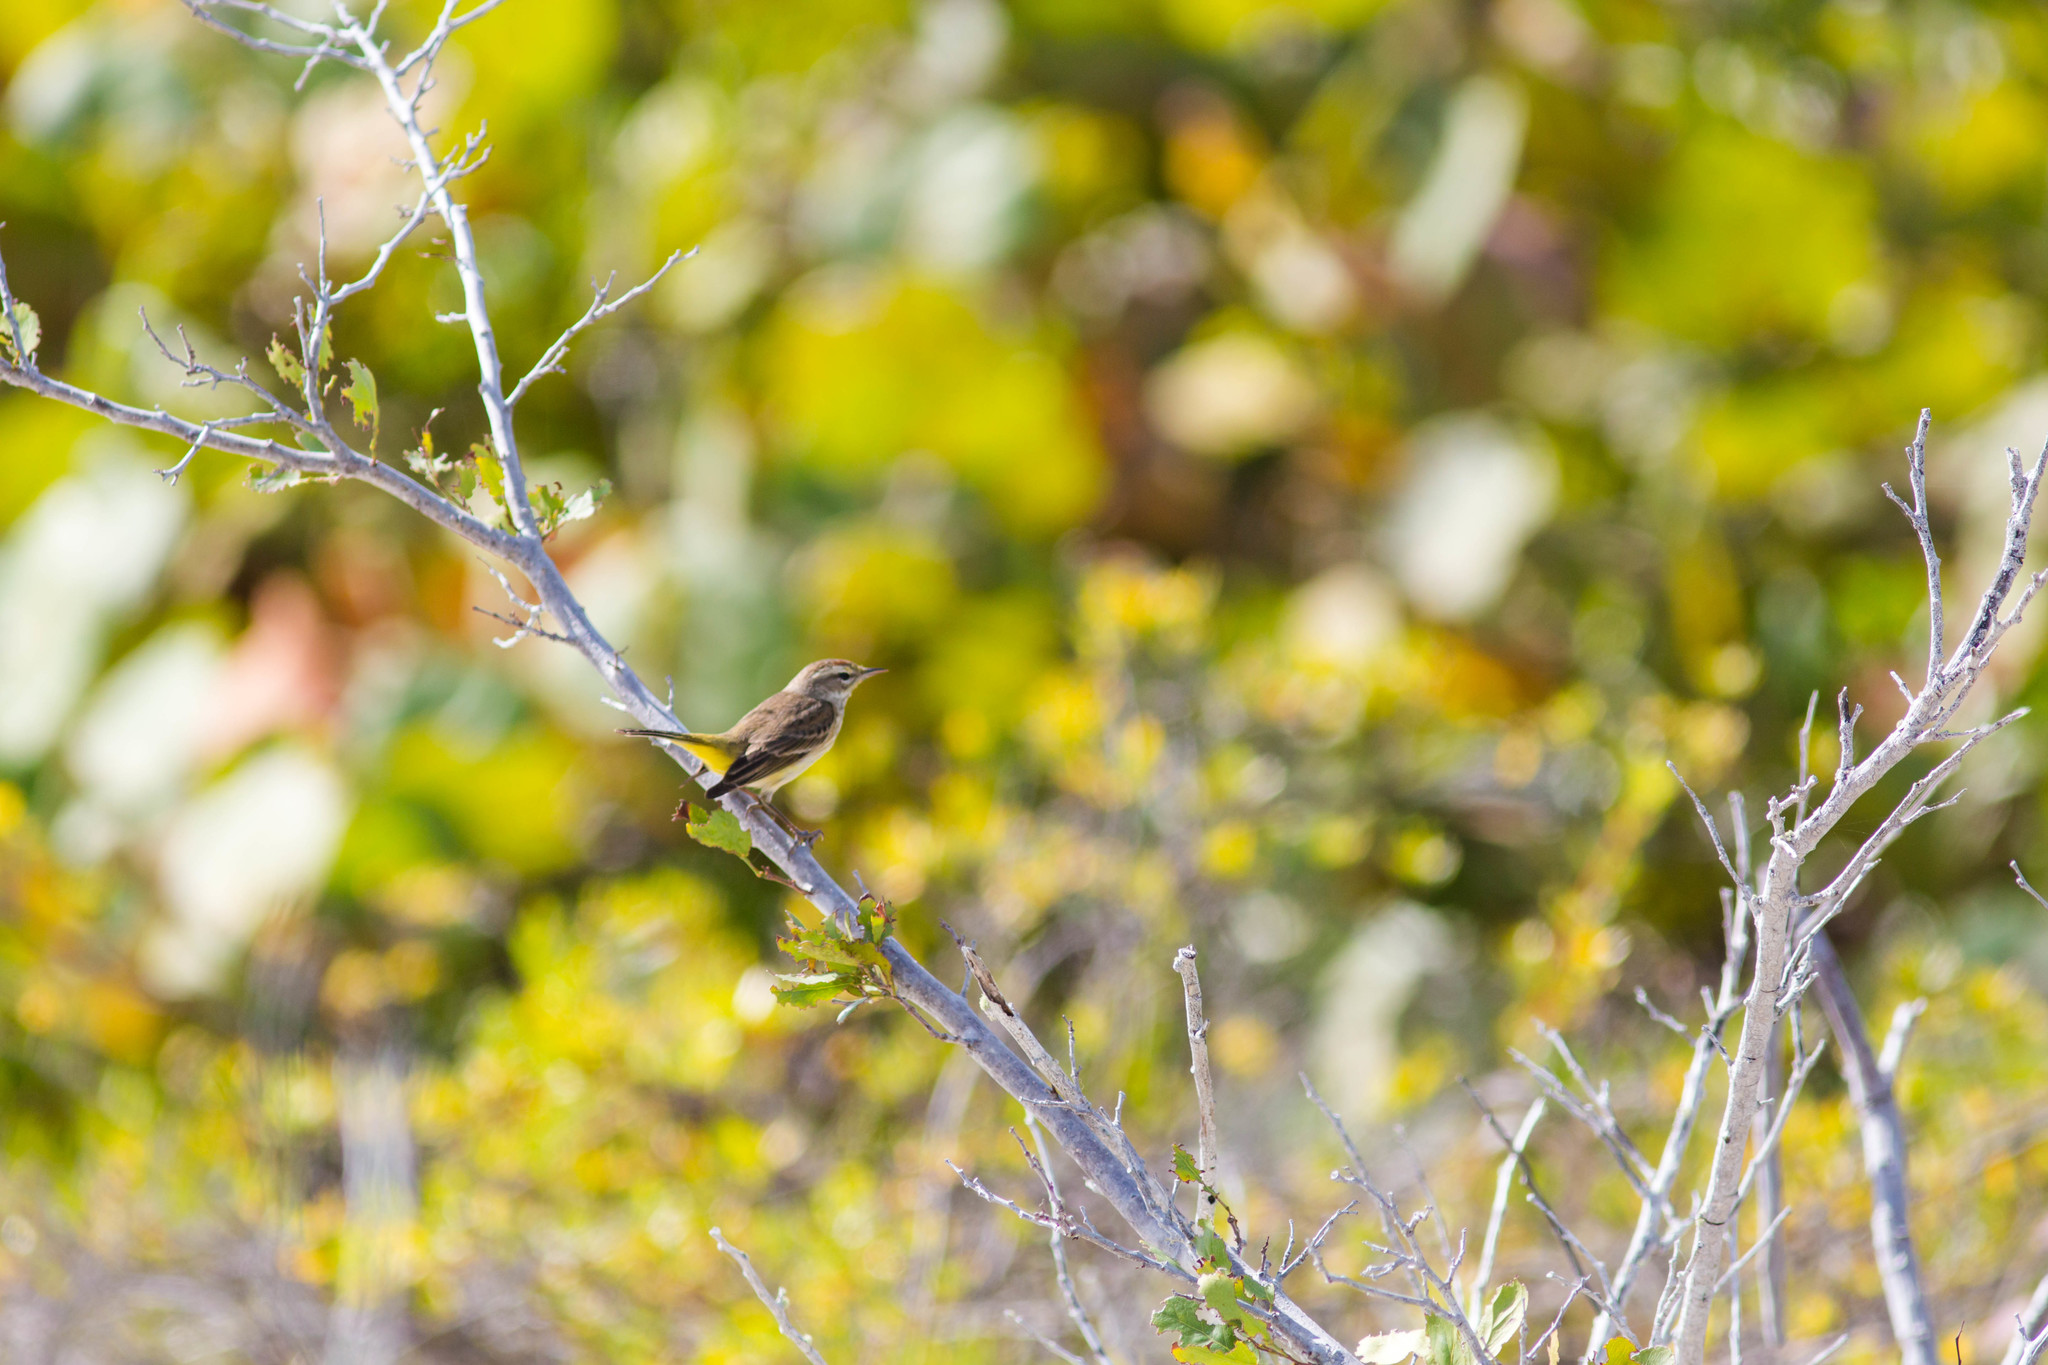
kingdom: Animalia
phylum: Chordata
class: Aves
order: Passeriformes
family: Parulidae
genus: Setophaga
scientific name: Setophaga palmarum
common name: Palm warbler
